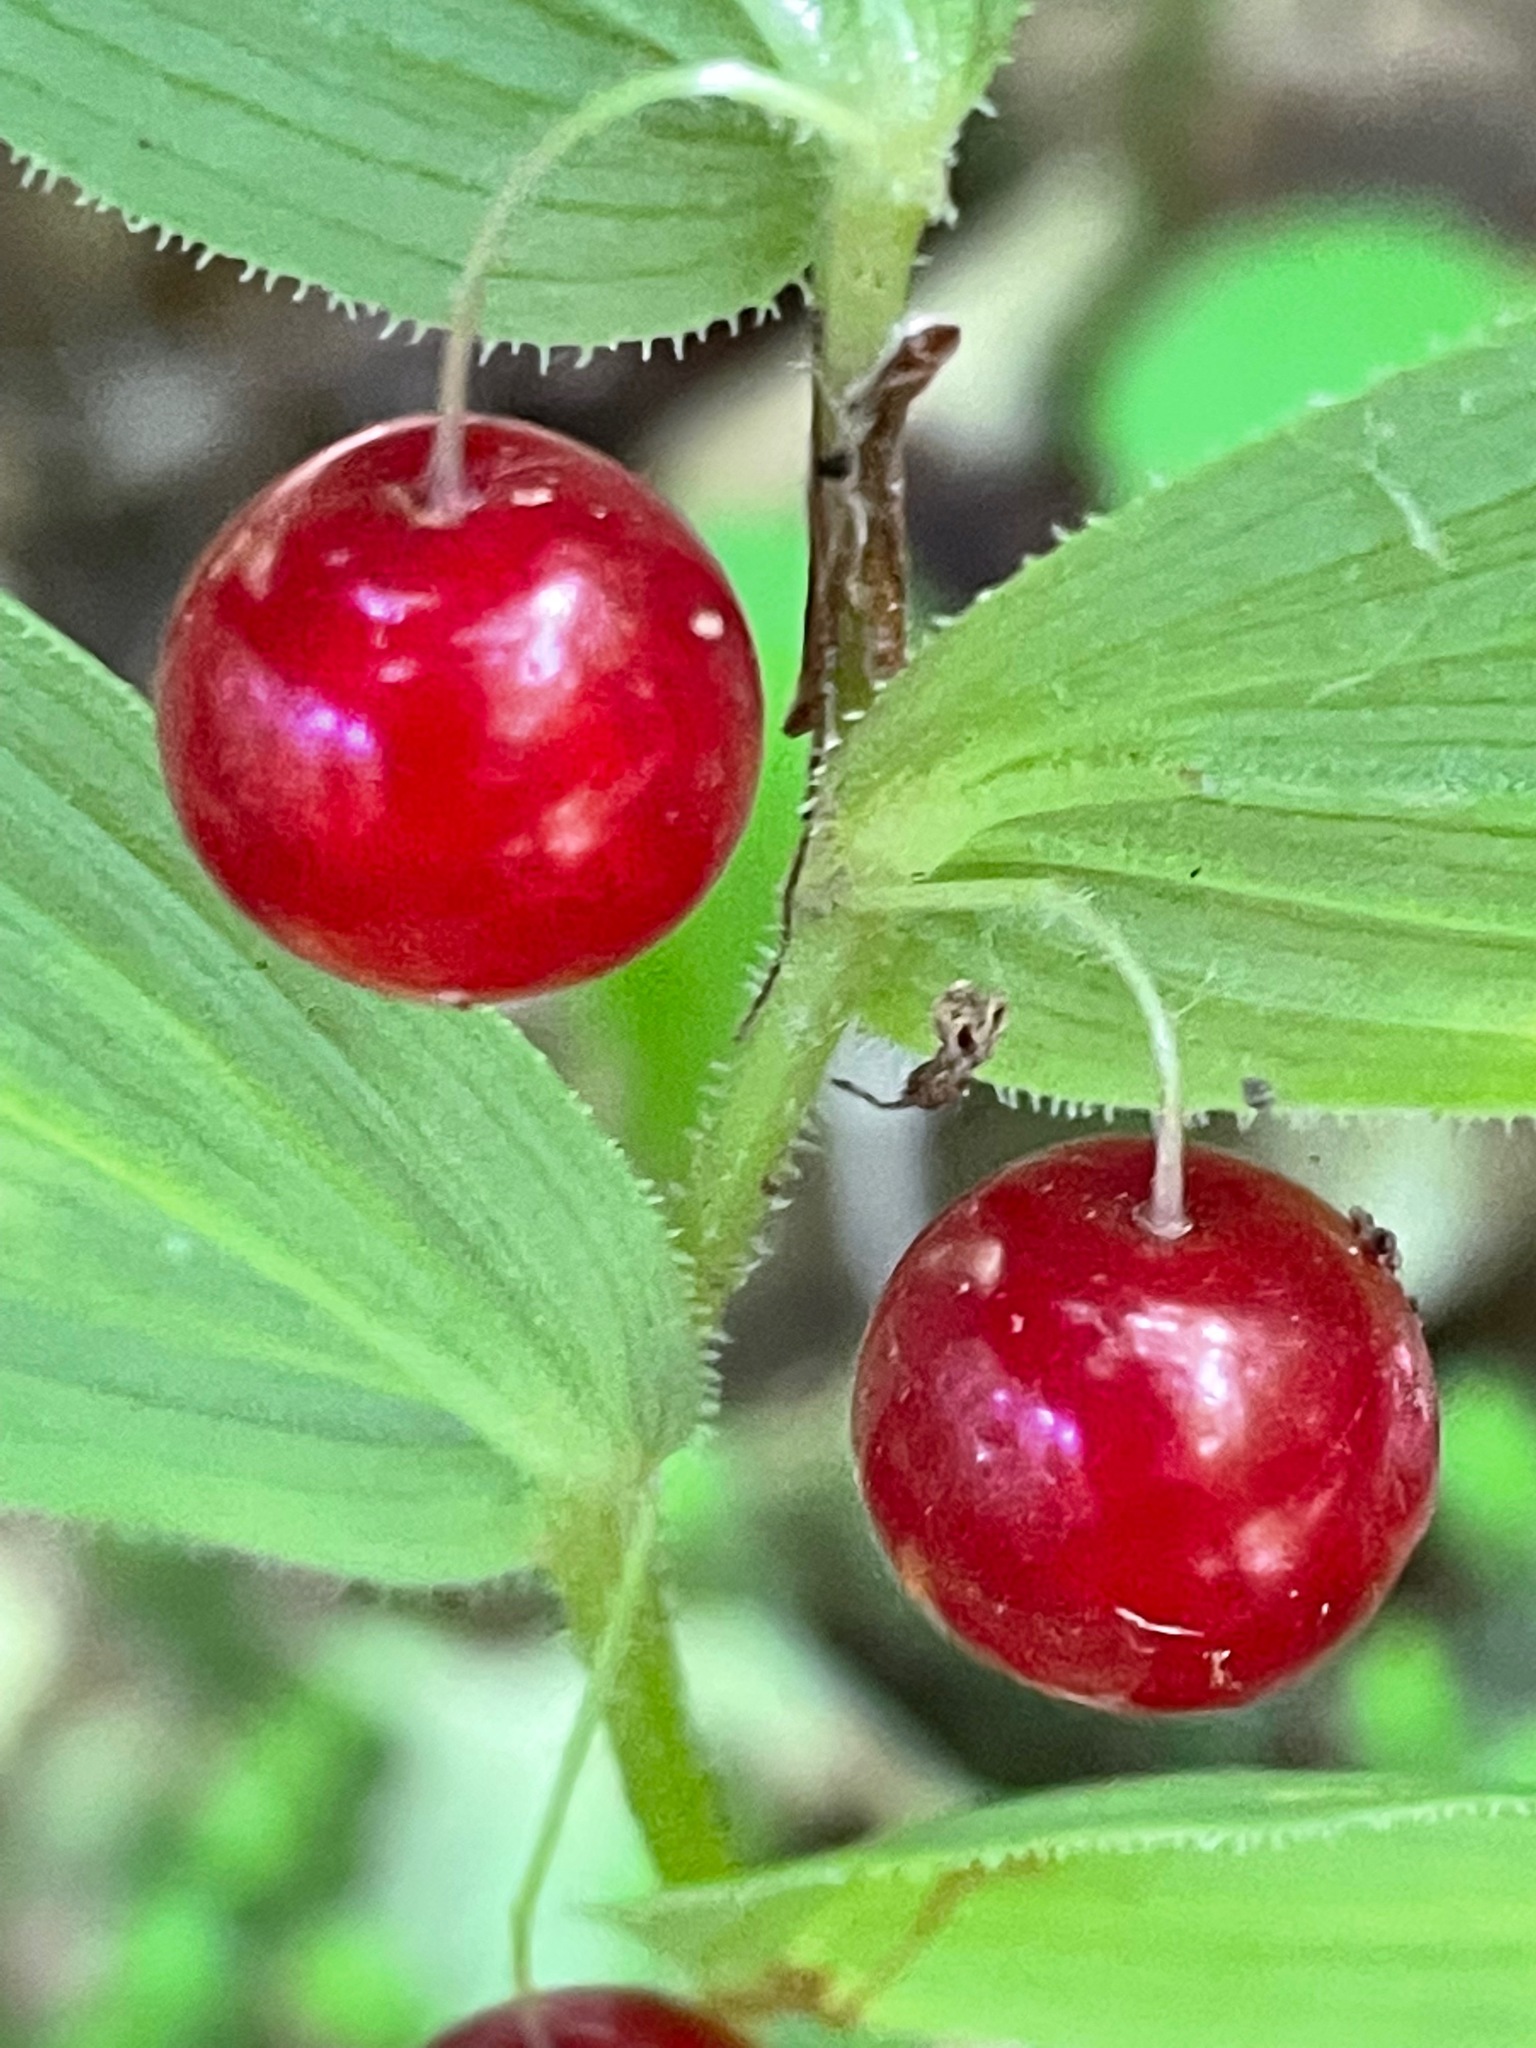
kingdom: Plantae
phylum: Tracheophyta
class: Liliopsida
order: Liliales
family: Liliaceae
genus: Streptopus
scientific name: Streptopus lanceolatus
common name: Rose mandarin
